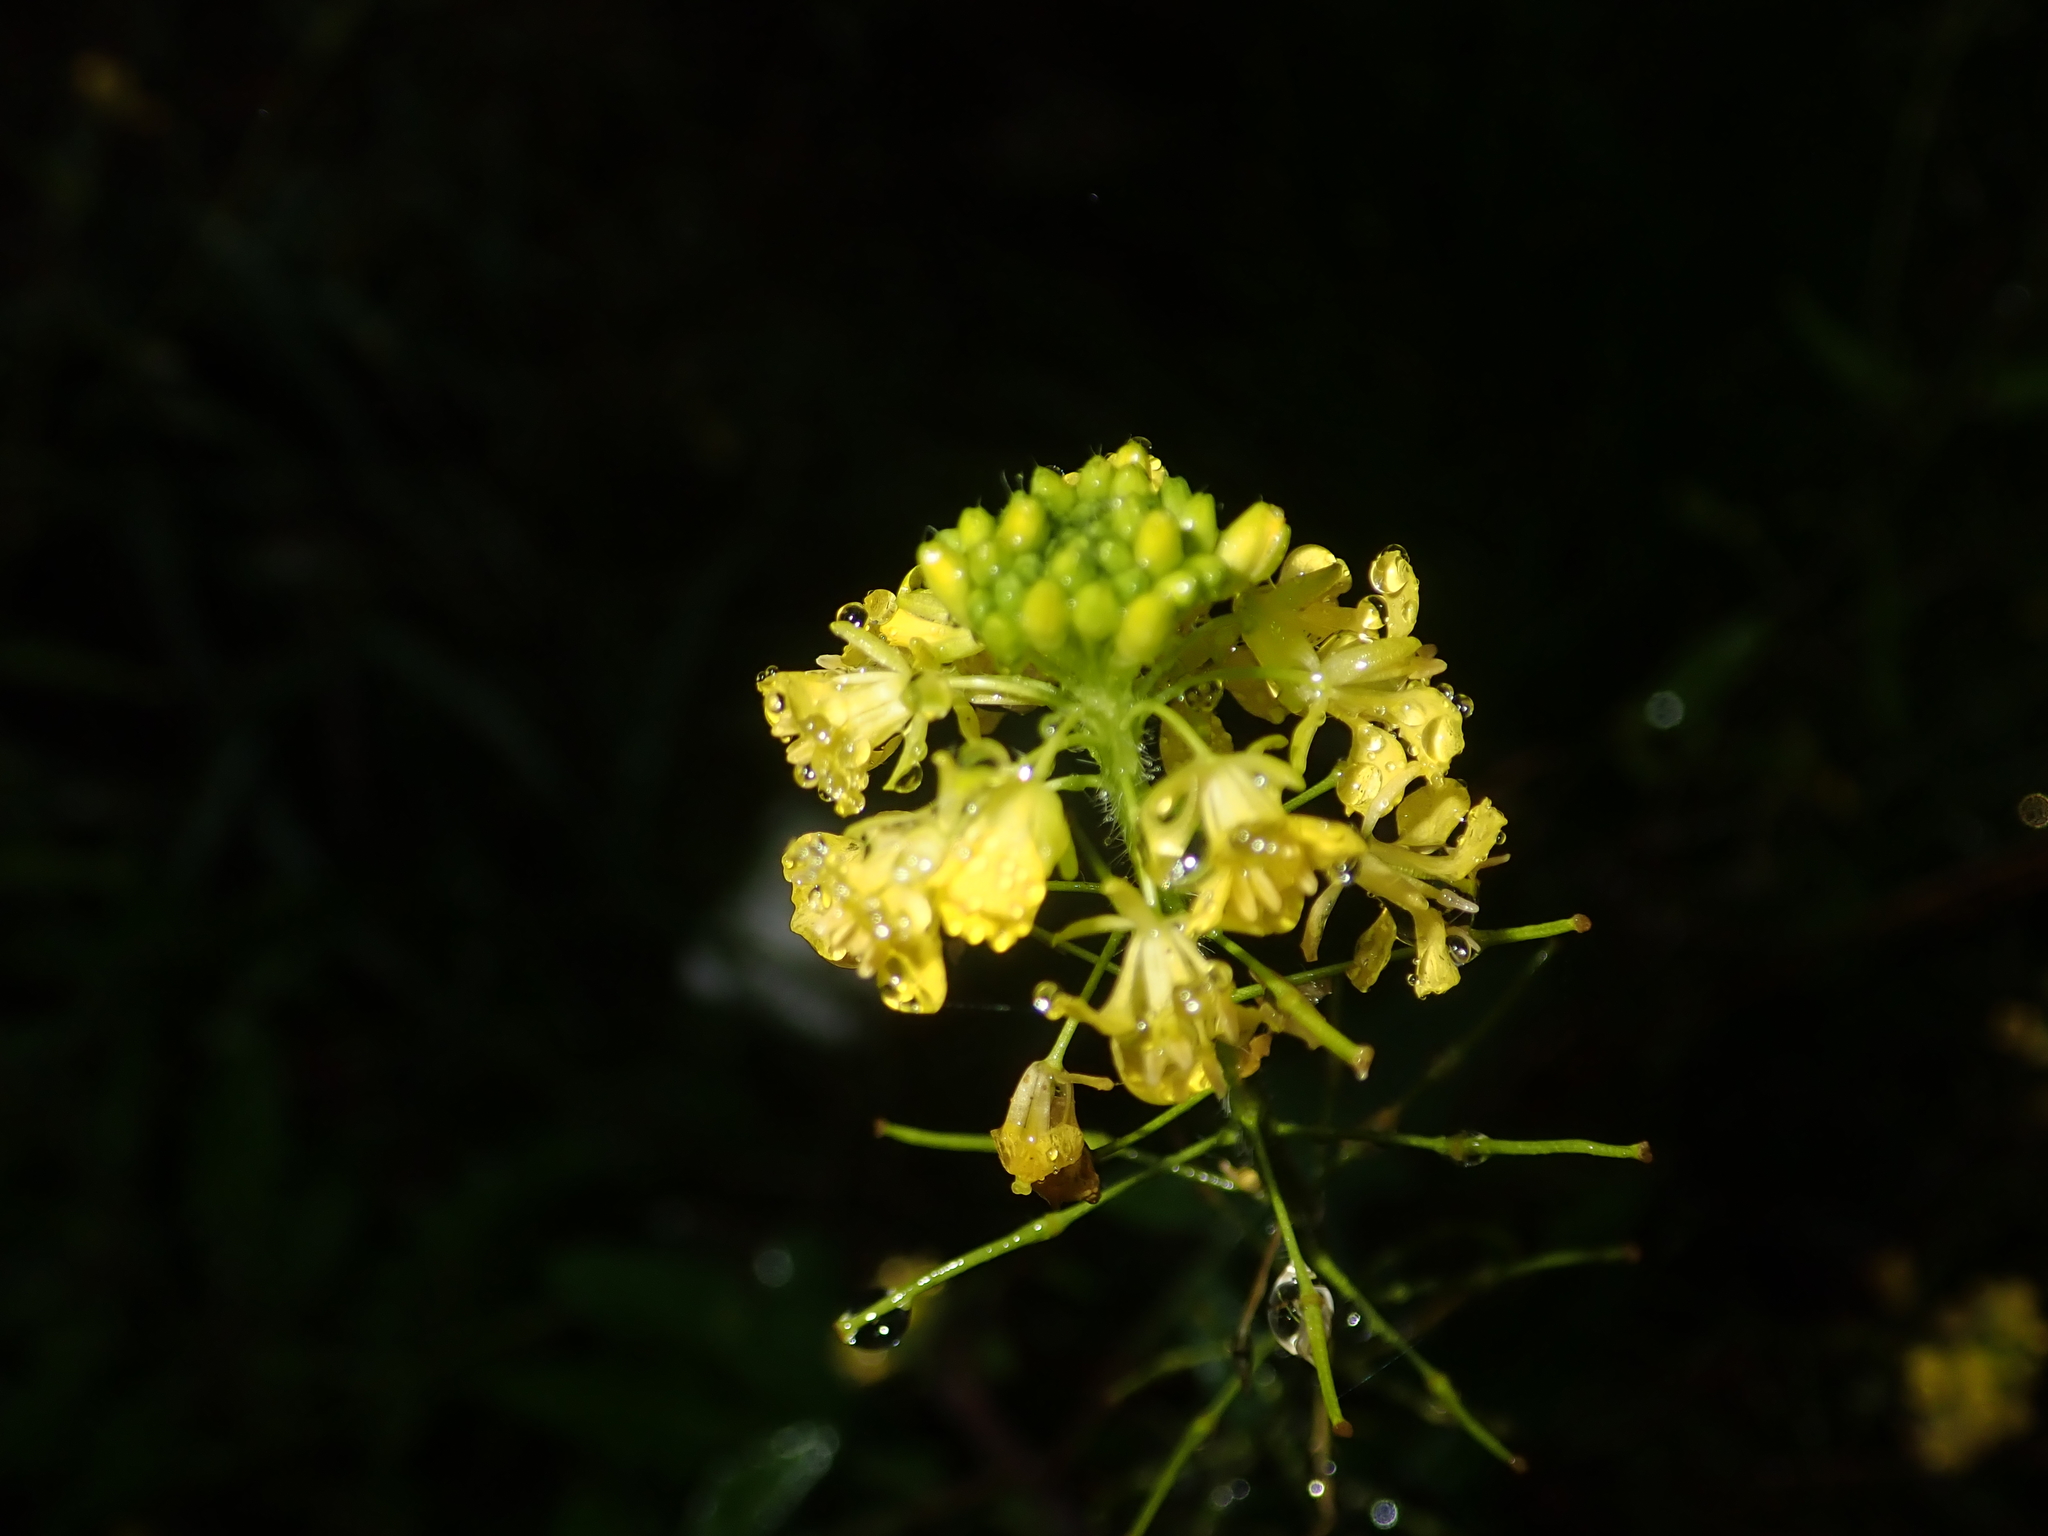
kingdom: Plantae
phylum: Tracheophyta
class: Magnoliopsida
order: Brassicales
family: Brassicaceae
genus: Sisymbrium
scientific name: Sisymbrium loeselii
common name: False london-rocket
